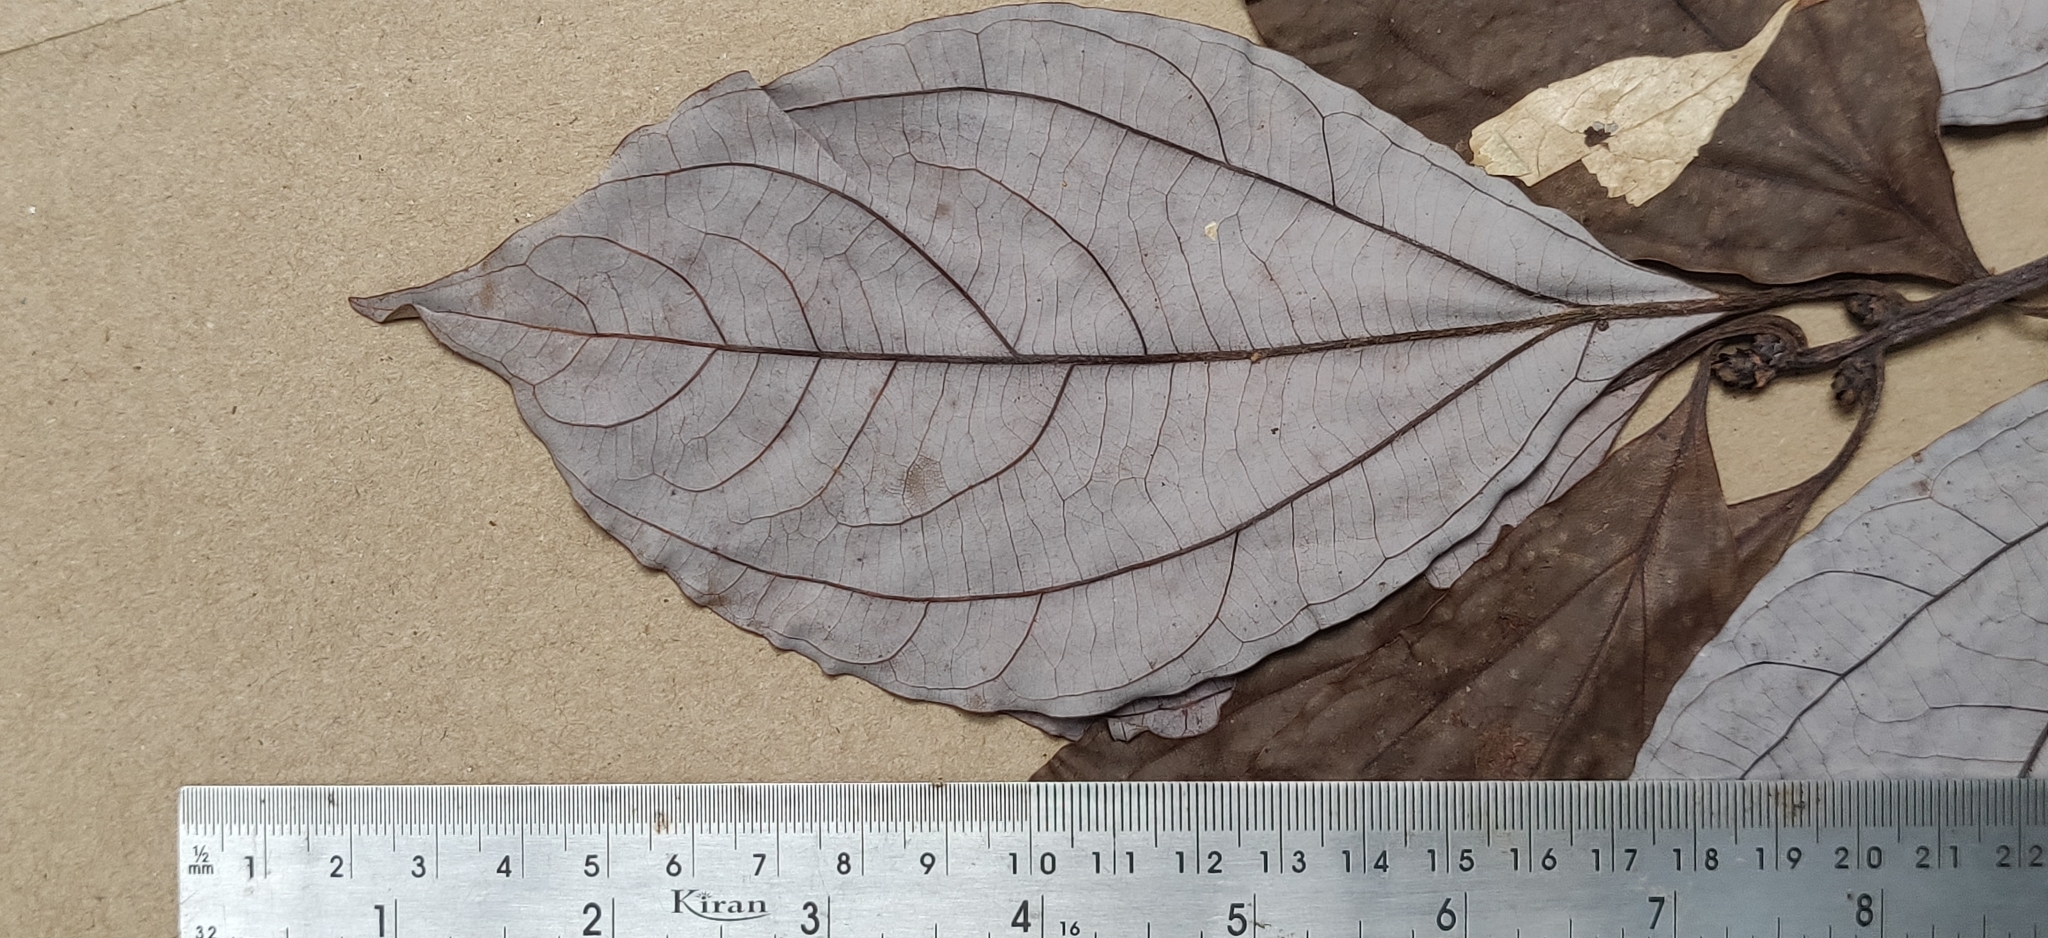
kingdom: Plantae
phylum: Tracheophyta
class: Magnoliopsida
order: Laurales
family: Lauraceae
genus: Neolitsea
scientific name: Neolitsea foliosa
